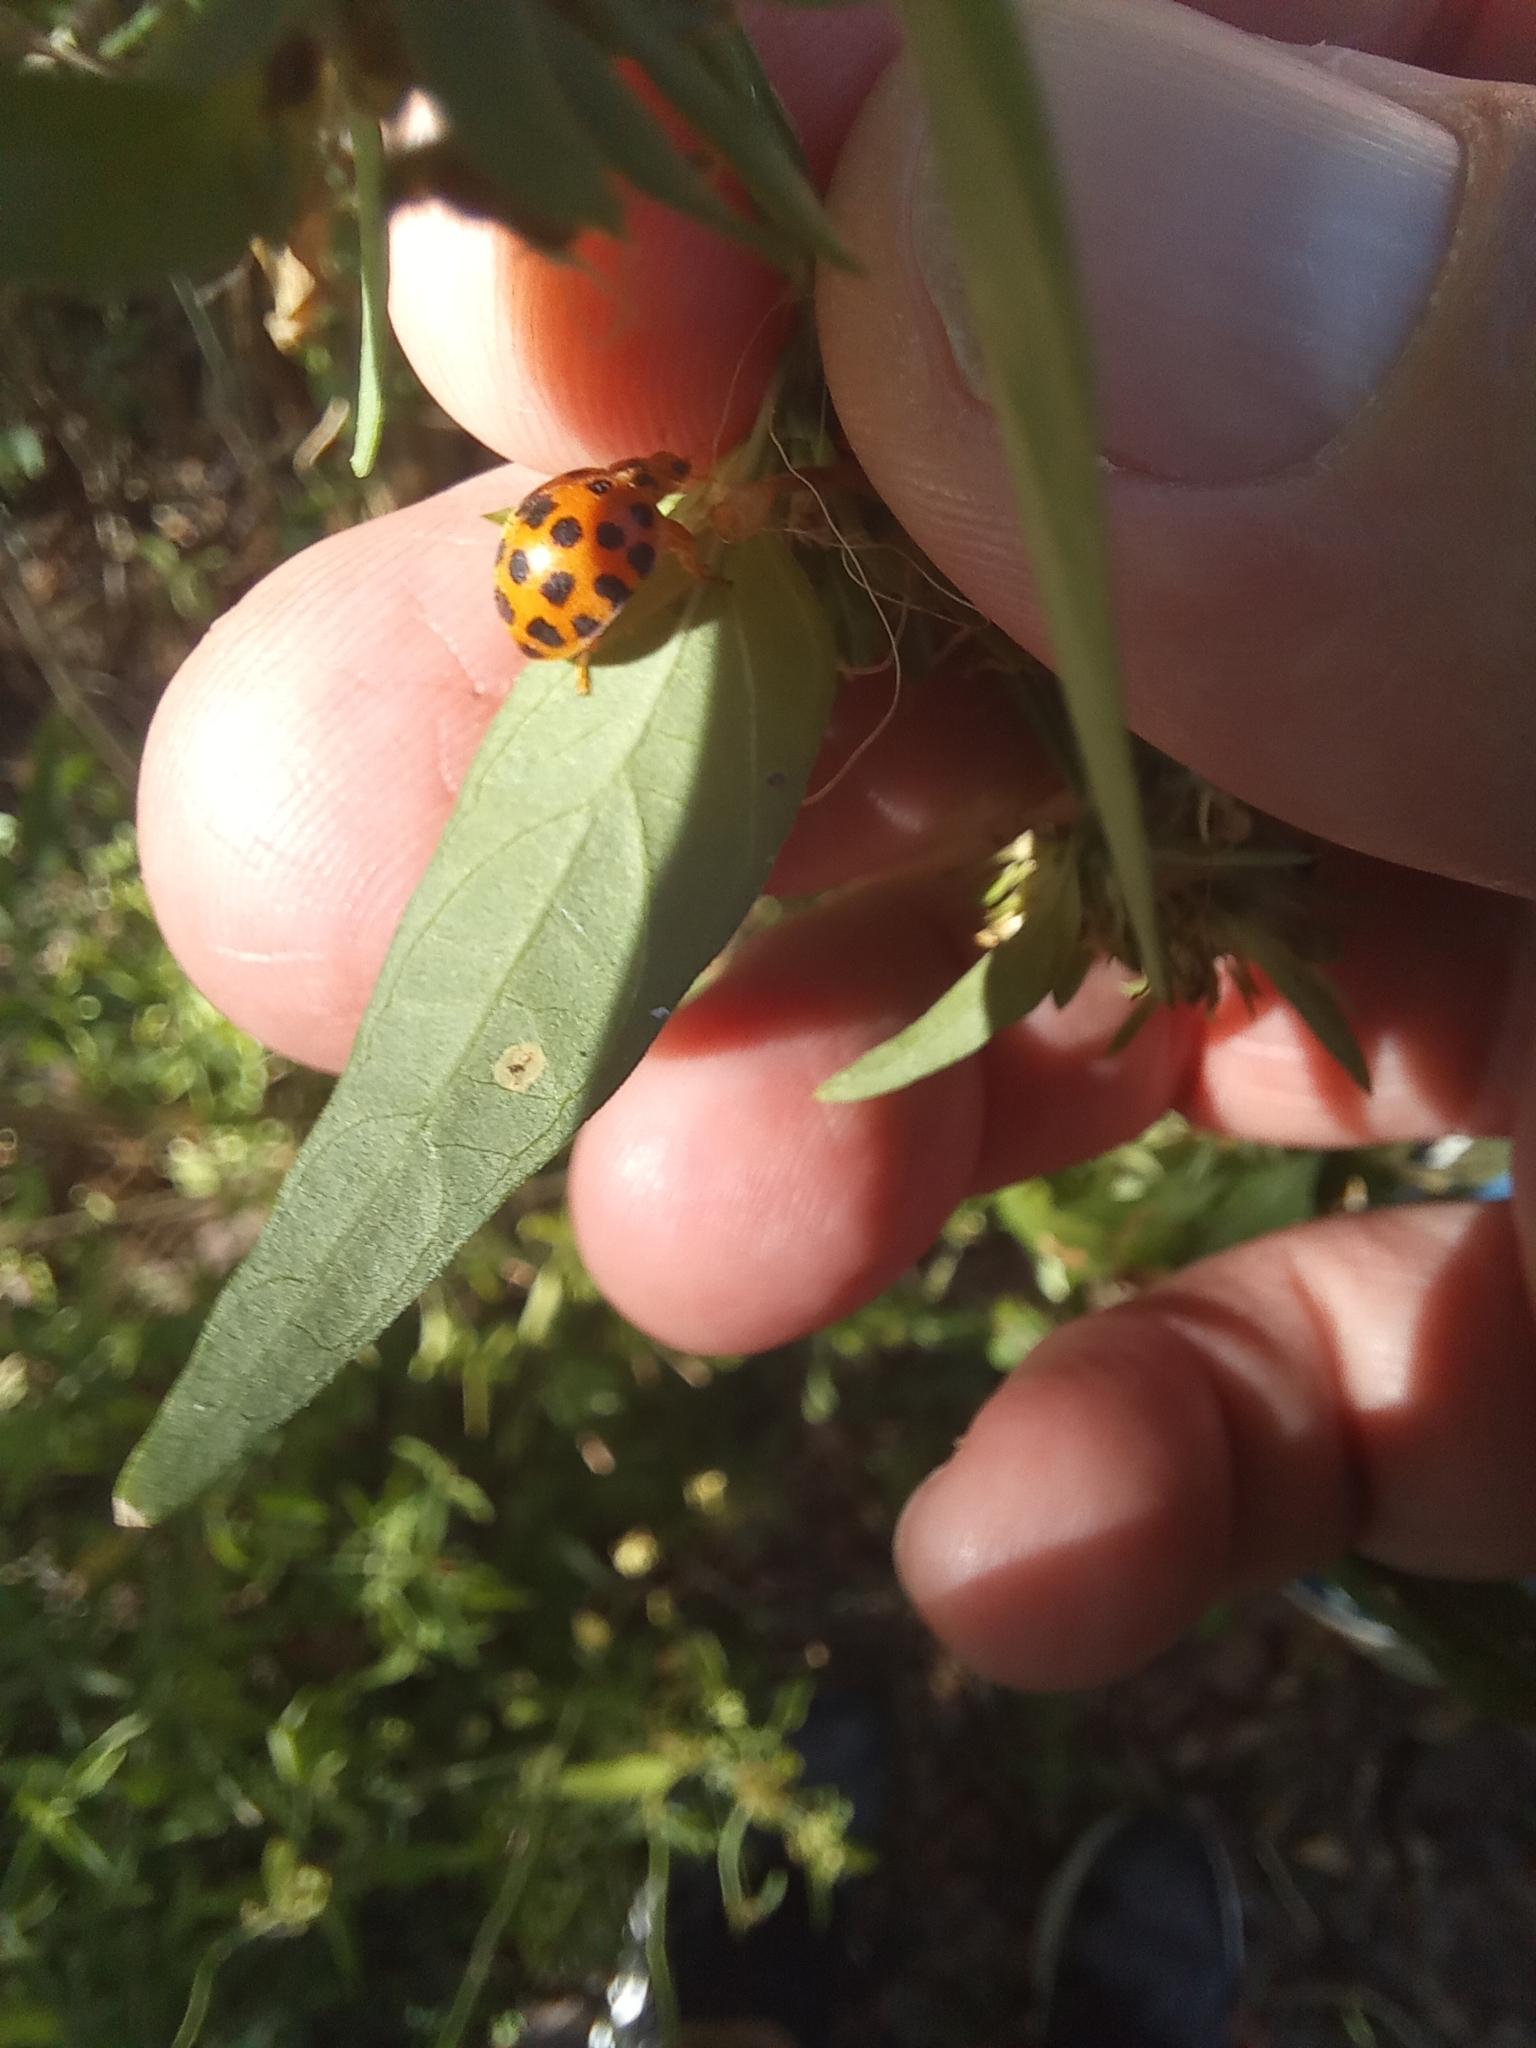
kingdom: Animalia
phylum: Arthropoda
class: Insecta
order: Coleoptera
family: Coccinellidae
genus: Henosepilachna
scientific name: Henosepilachna vigintioctopunctata
